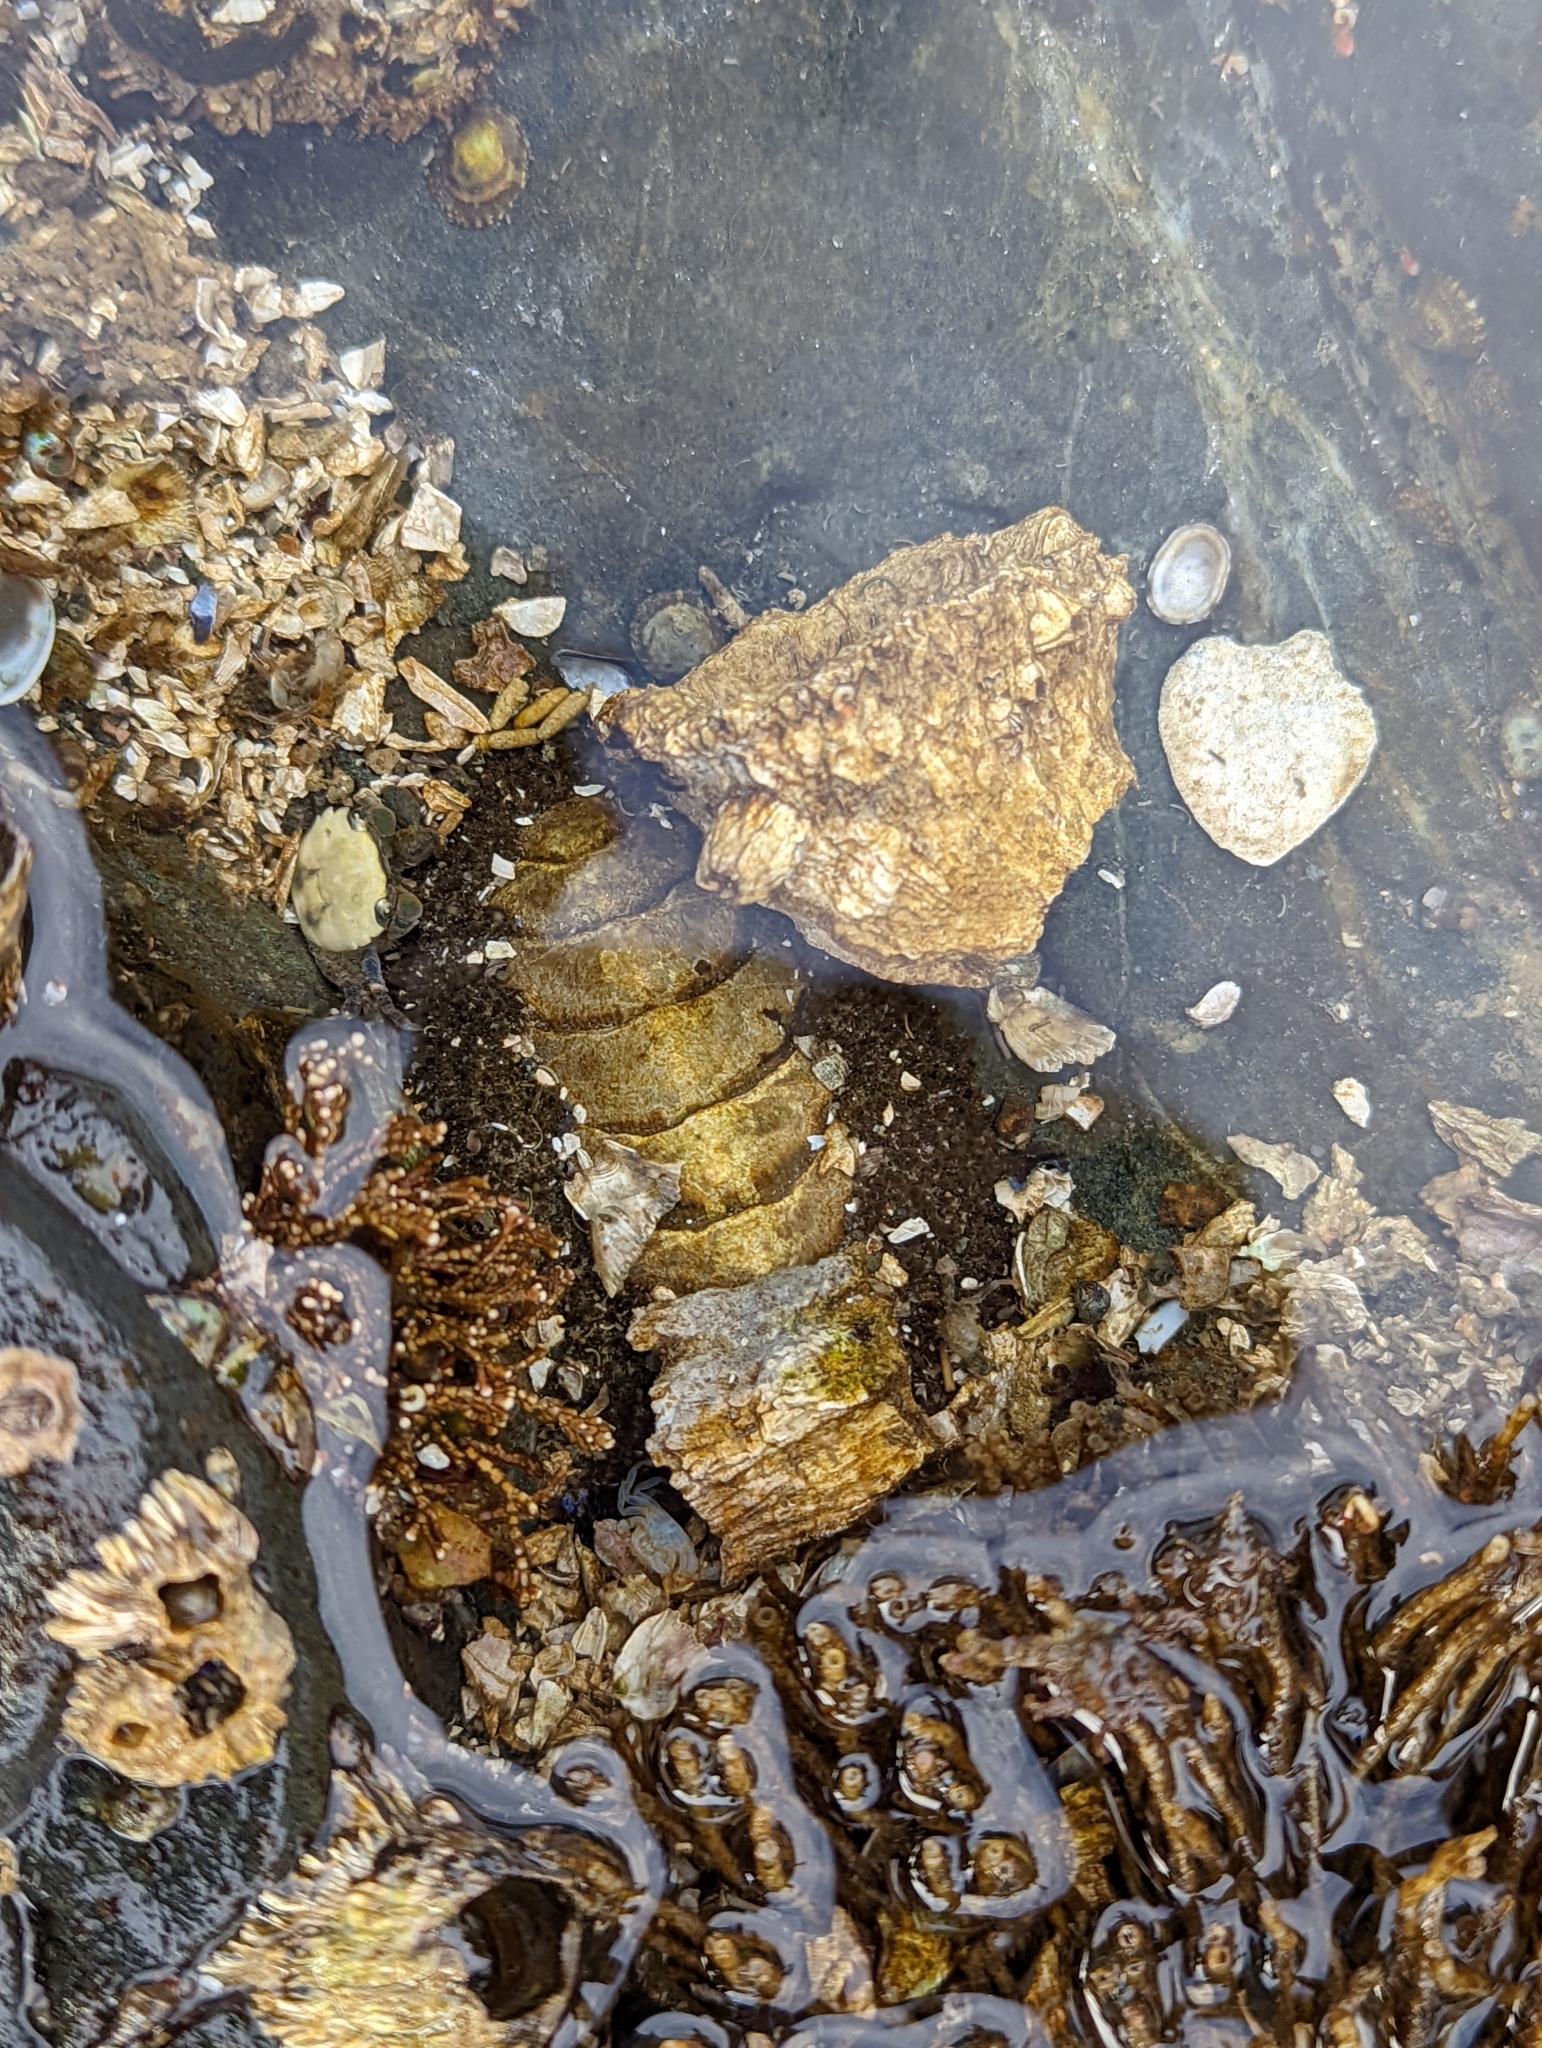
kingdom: Animalia
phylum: Mollusca
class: Polyplacophora
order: Chitonida
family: Mopaliidae
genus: Mopalia
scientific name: Mopalia muscosa
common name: Mossy chiton
